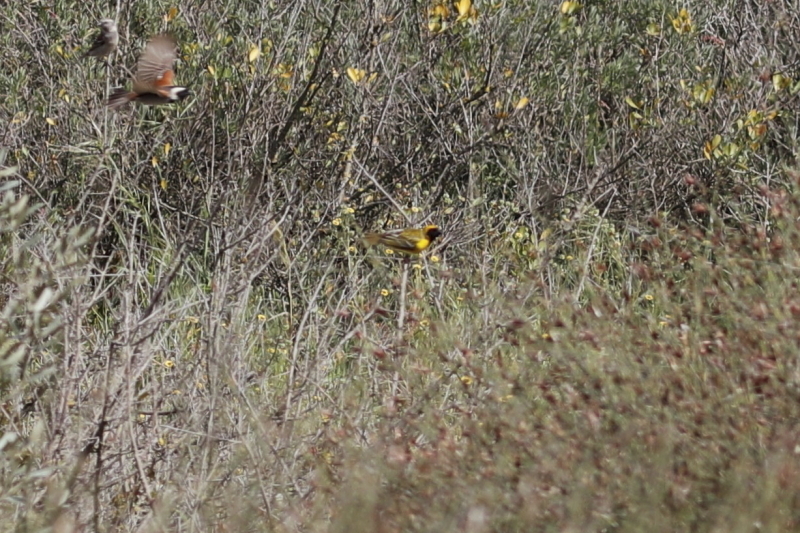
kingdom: Animalia
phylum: Chordata
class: Aves
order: Passeriformes
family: Ploceidae
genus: Ploceus
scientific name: Ploceus velatus
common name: Southern masked weaver
